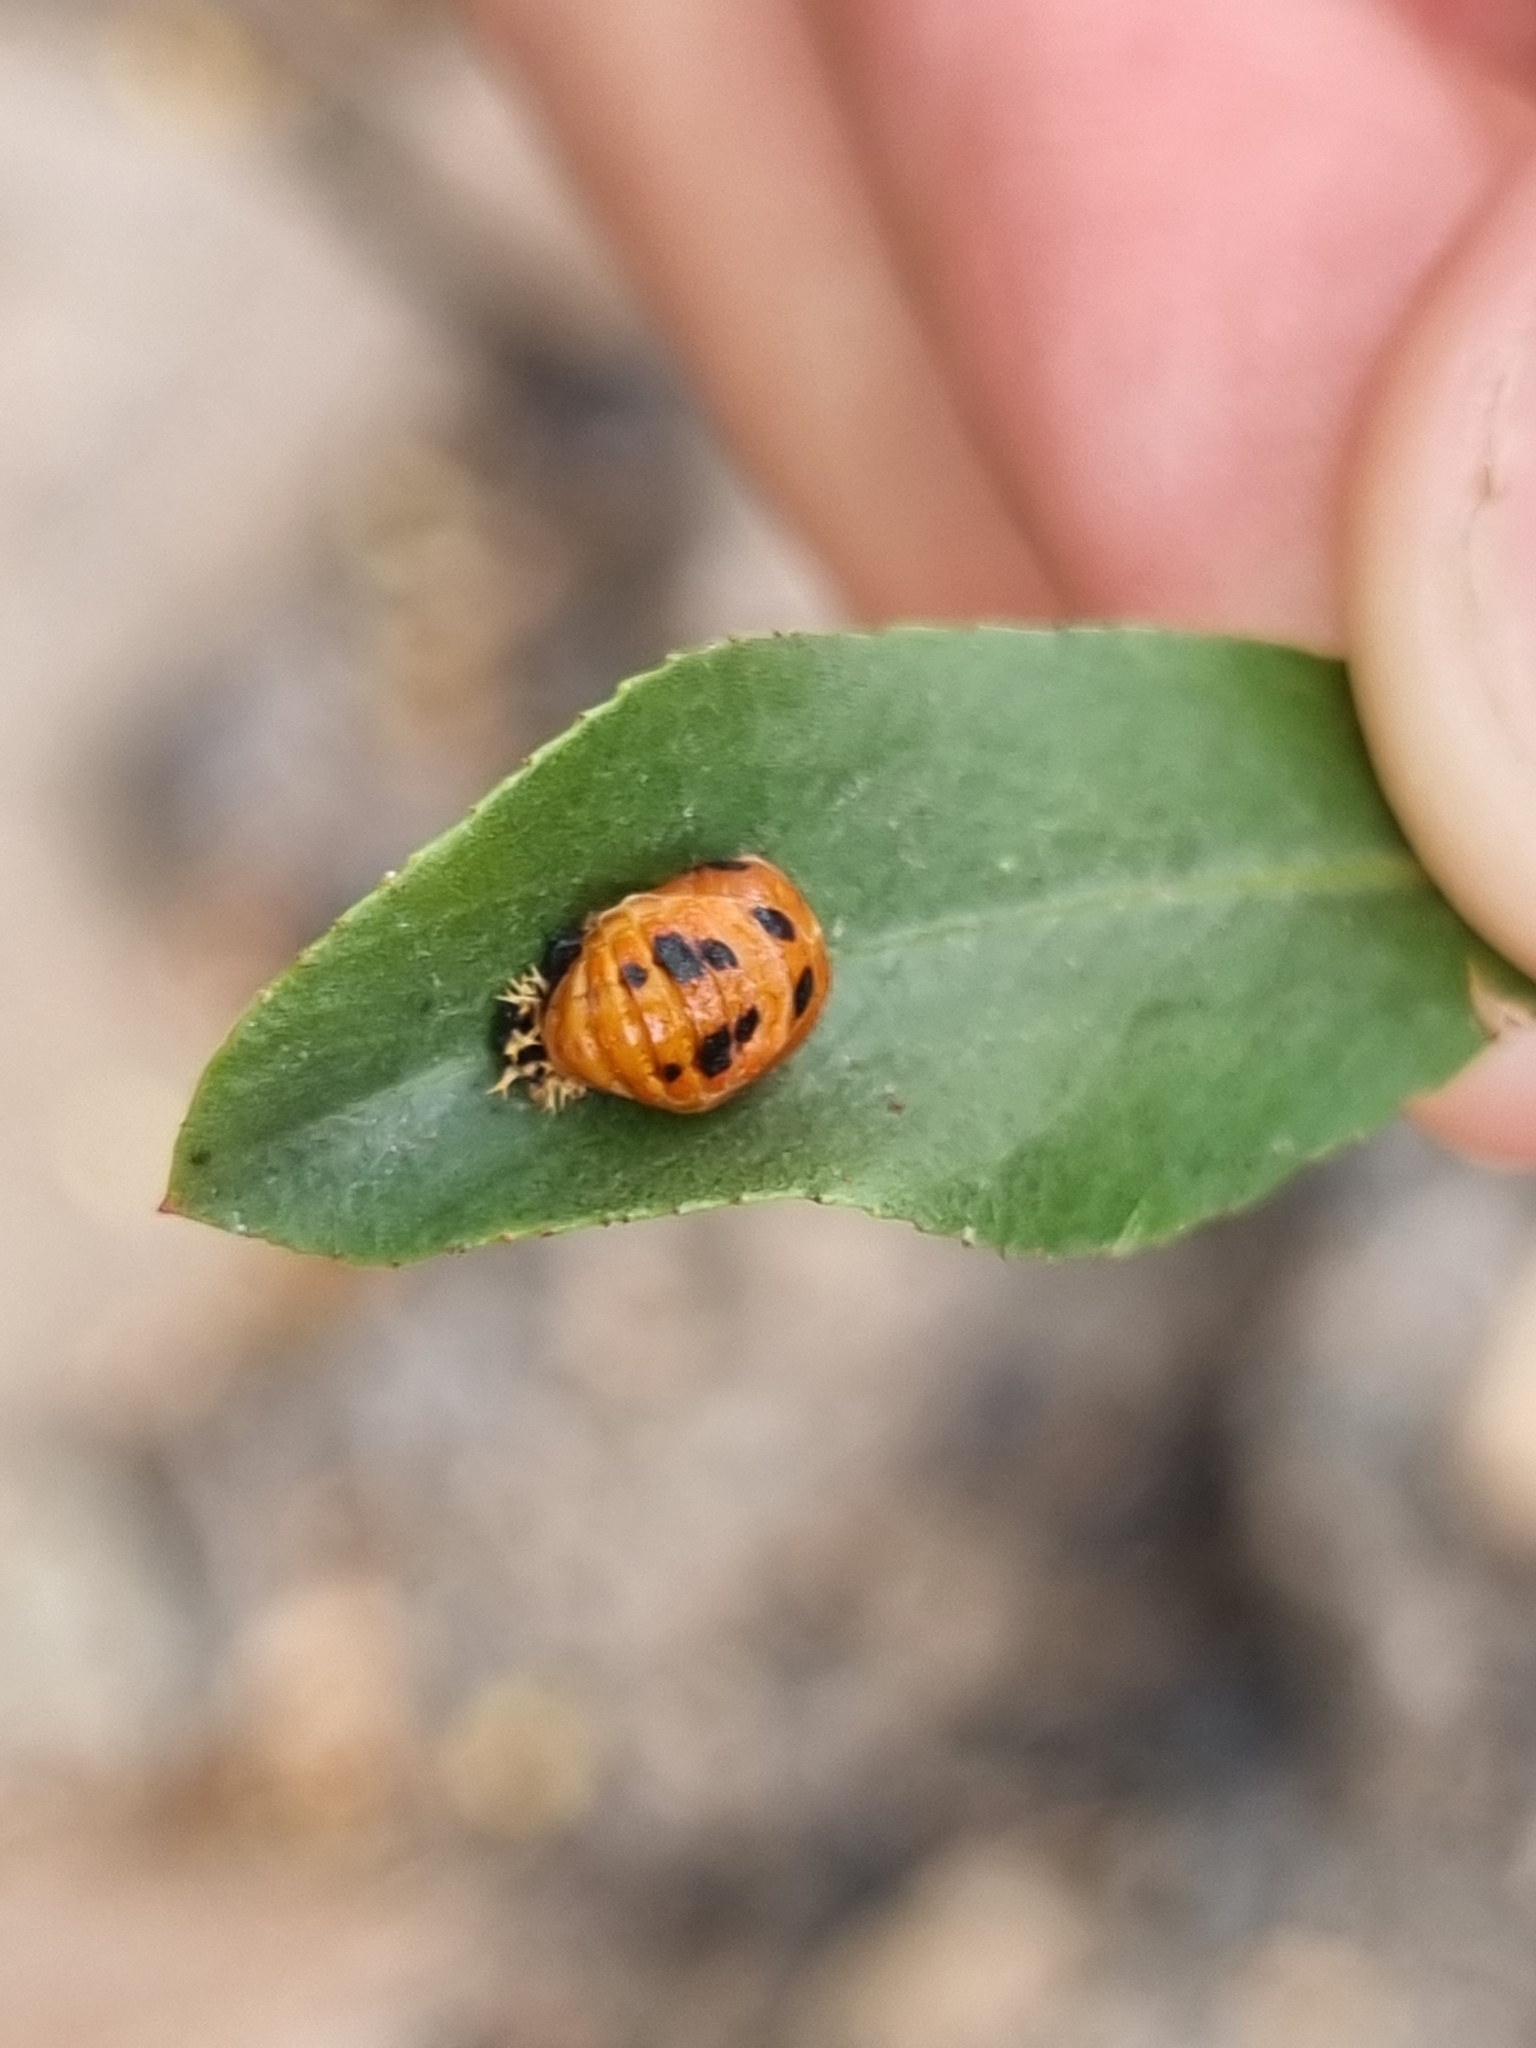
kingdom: Animalia
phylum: Arthropoda
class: Insecta
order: Coleoptera
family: Coccinellidae
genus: Harmonia
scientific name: Harmonia axyridis
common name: Harlequin ladybird
